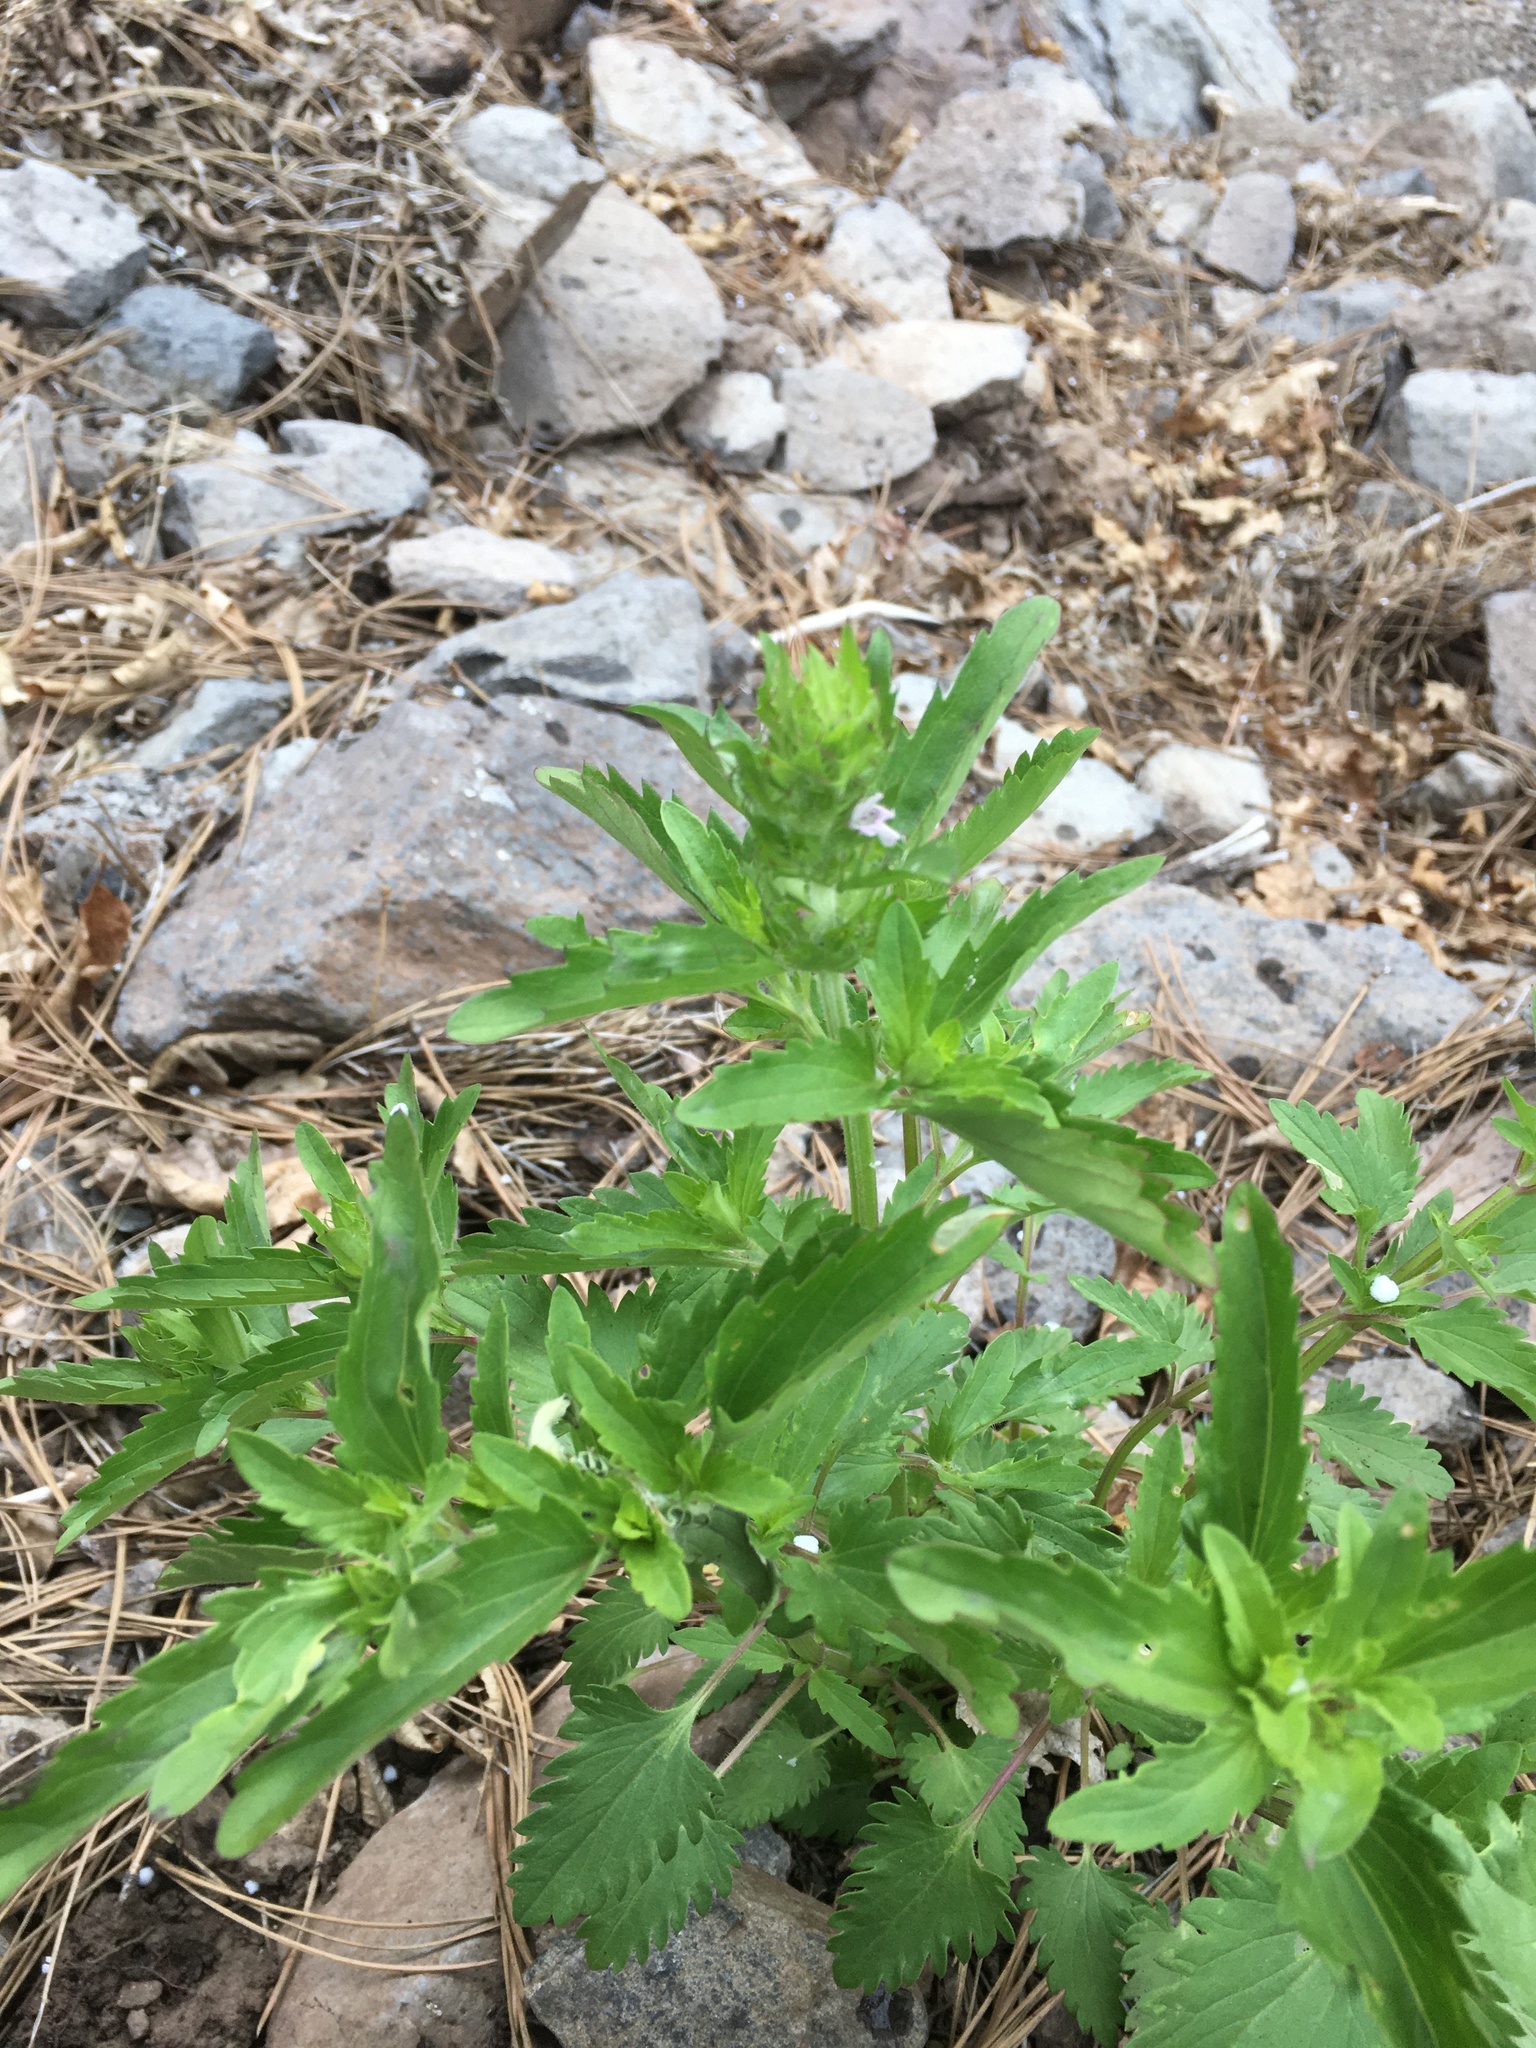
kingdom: Plantae
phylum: Tracheophyta
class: Magnoliopsida
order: Lamiales
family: Lamiaceae
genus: Dracocephalum
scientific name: Dracocephalum parviflorum
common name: American dragonhead
